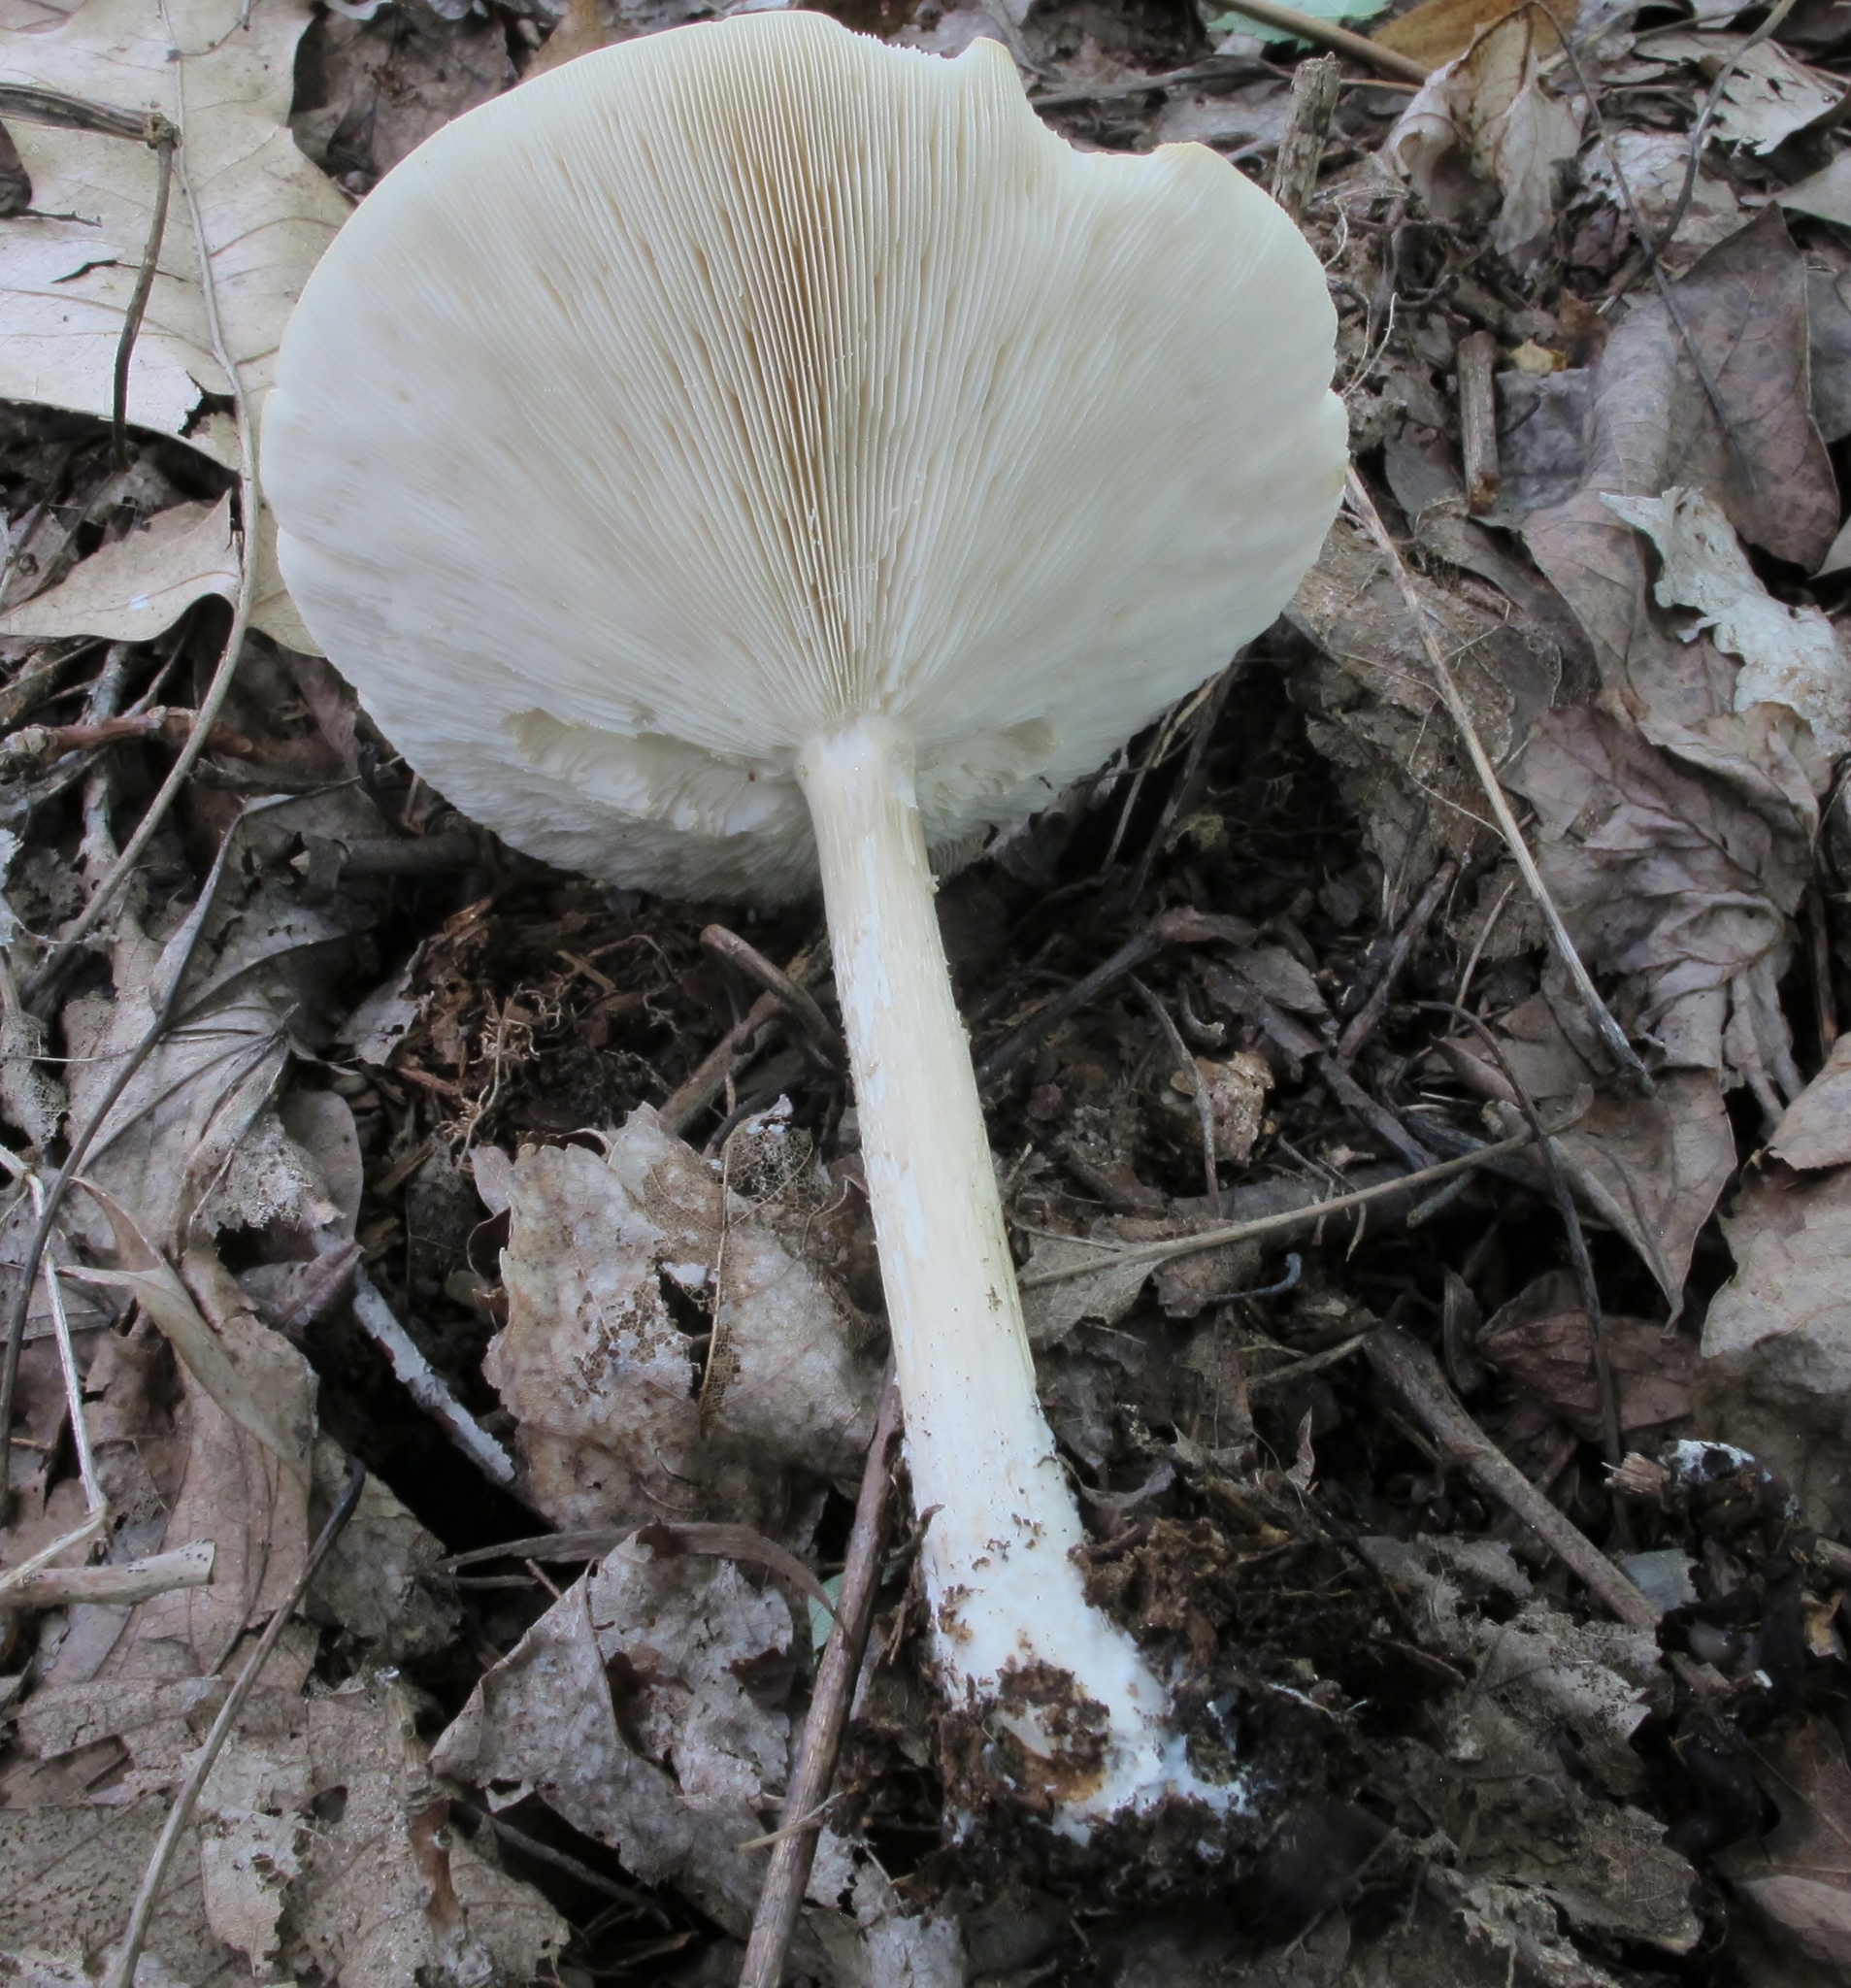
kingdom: Fungi
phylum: Basidiomycota
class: Agaricomycetes
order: Agaricales
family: Tricholomataceae
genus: Collybia
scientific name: Collybia alboflavida
